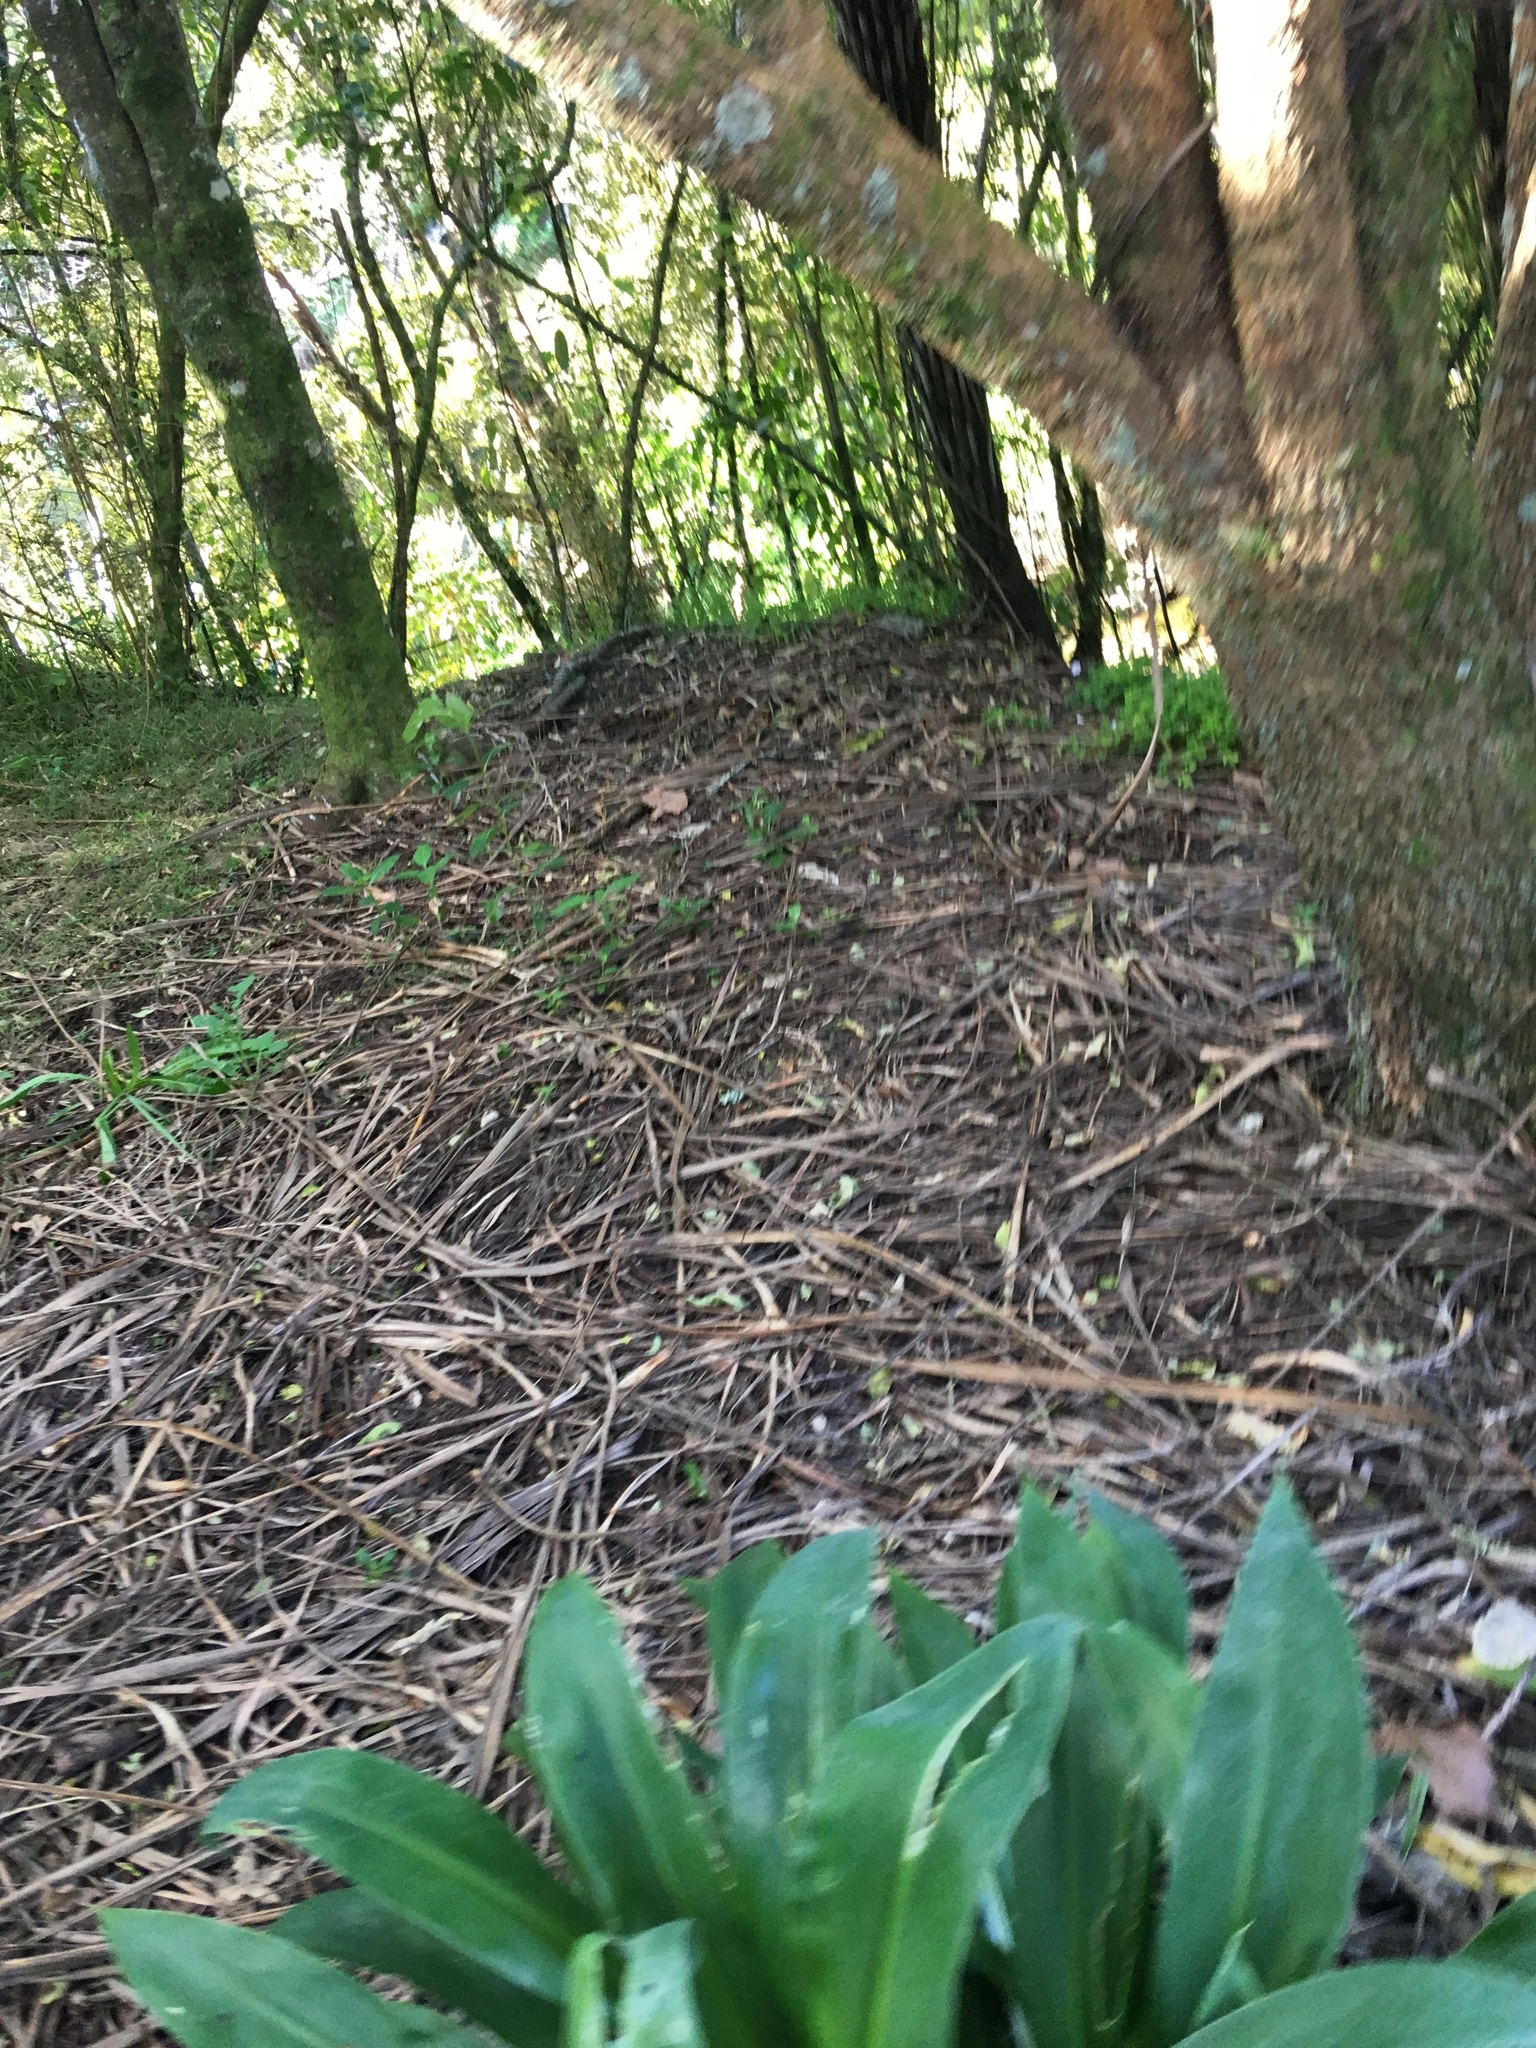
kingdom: Plantae
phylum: Tracheophyta
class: Liliopsida
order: Asparagales
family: Asparagaceae
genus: Arthropodium
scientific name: Arthropodium cirratum
